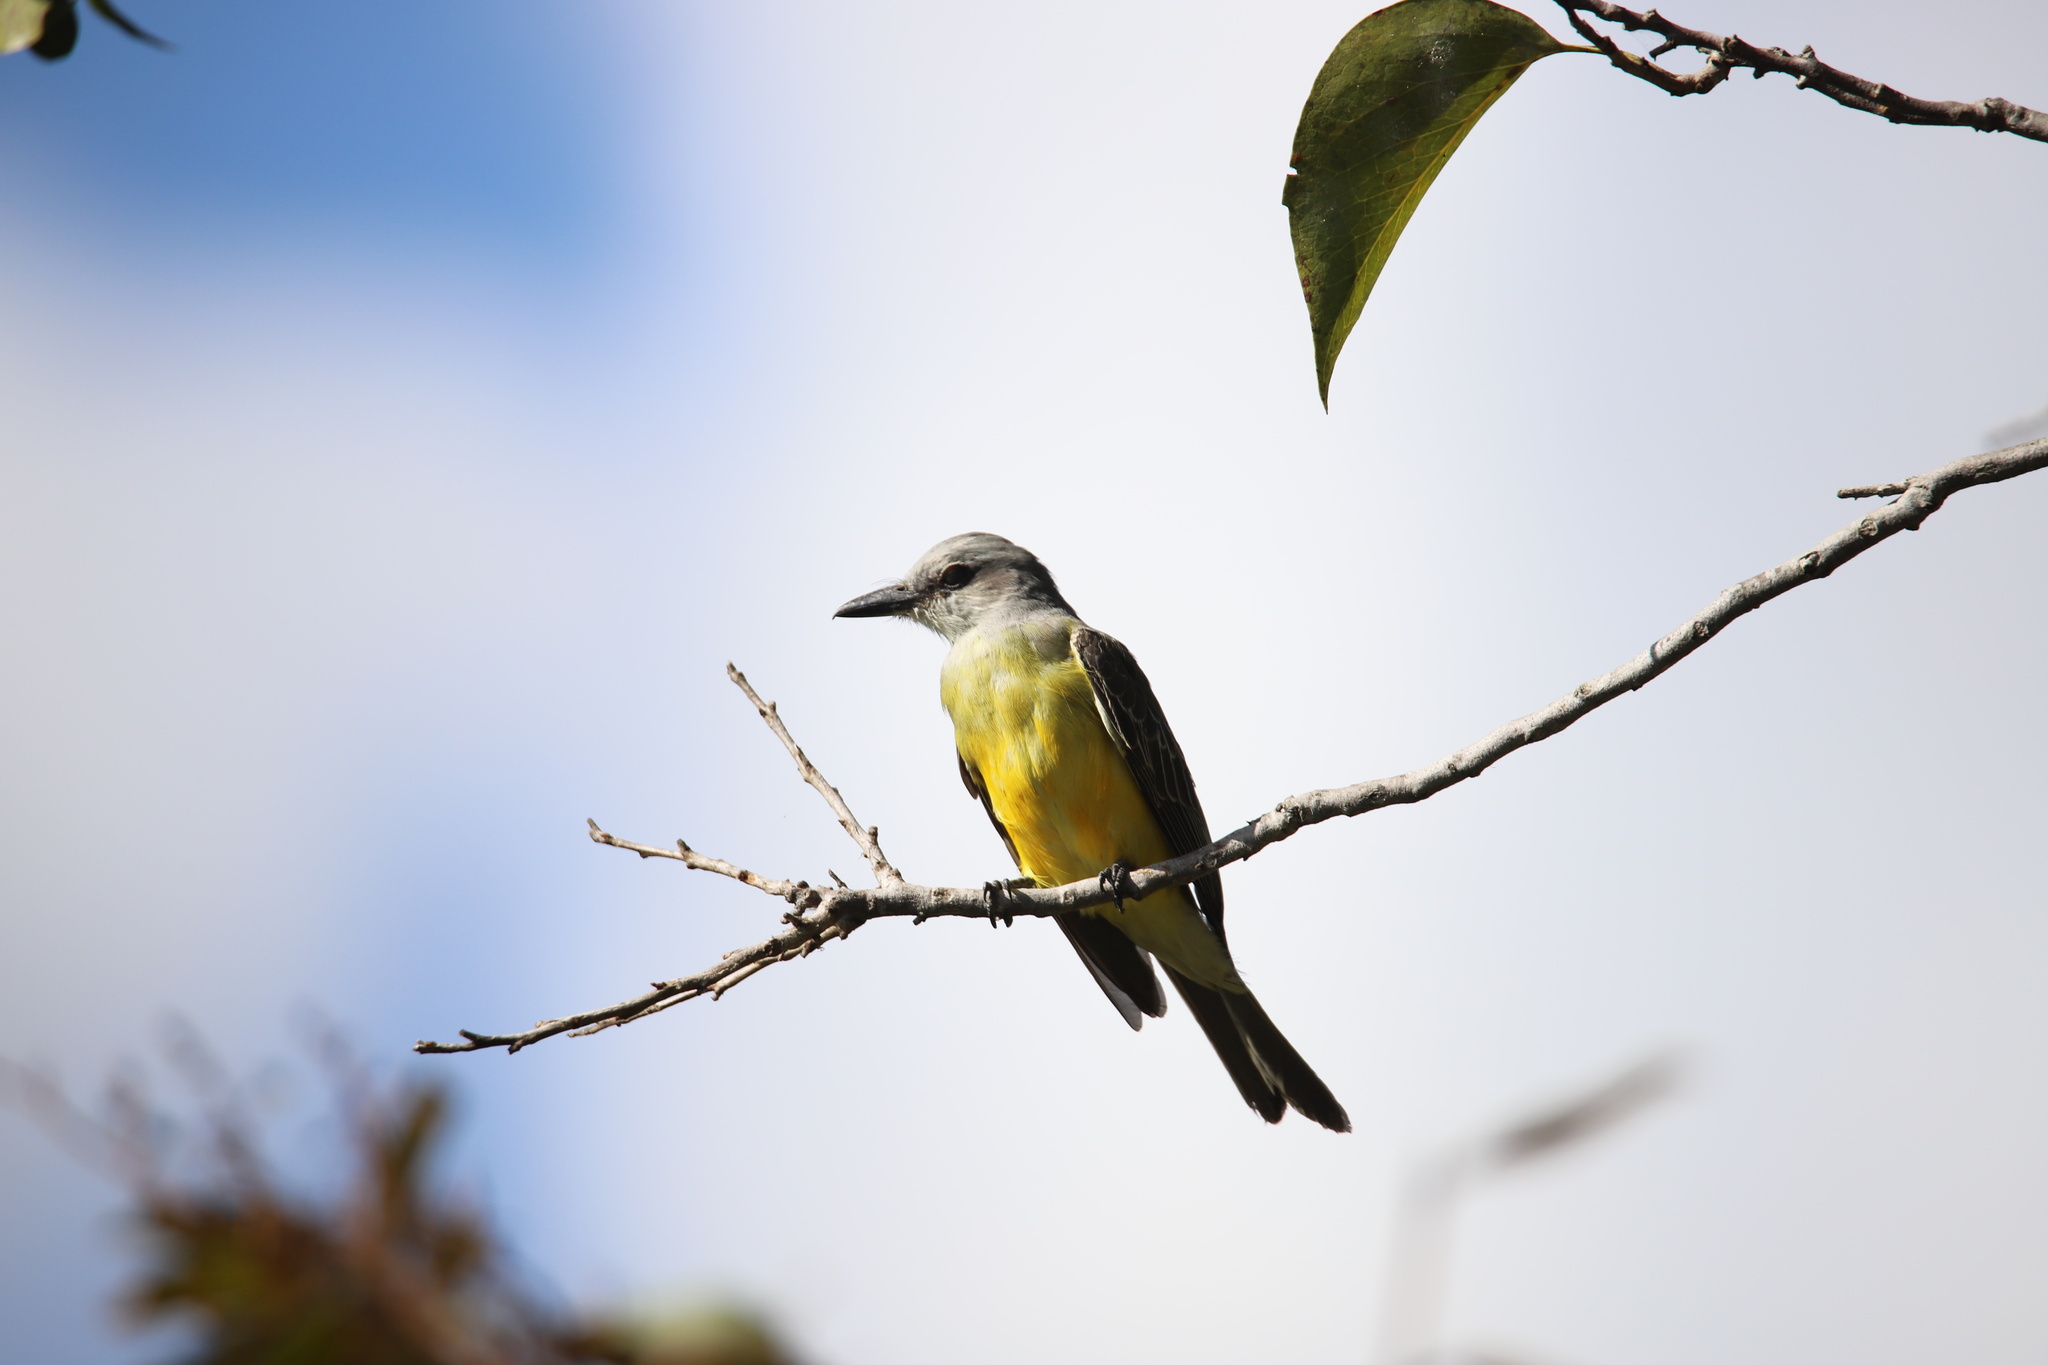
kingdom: Animalia
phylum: Chordata
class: Aves
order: Passeriformes
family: Tyrannidae
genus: Tyrannus
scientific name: Tyrannus melancholicus
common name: Tropical kingbird
